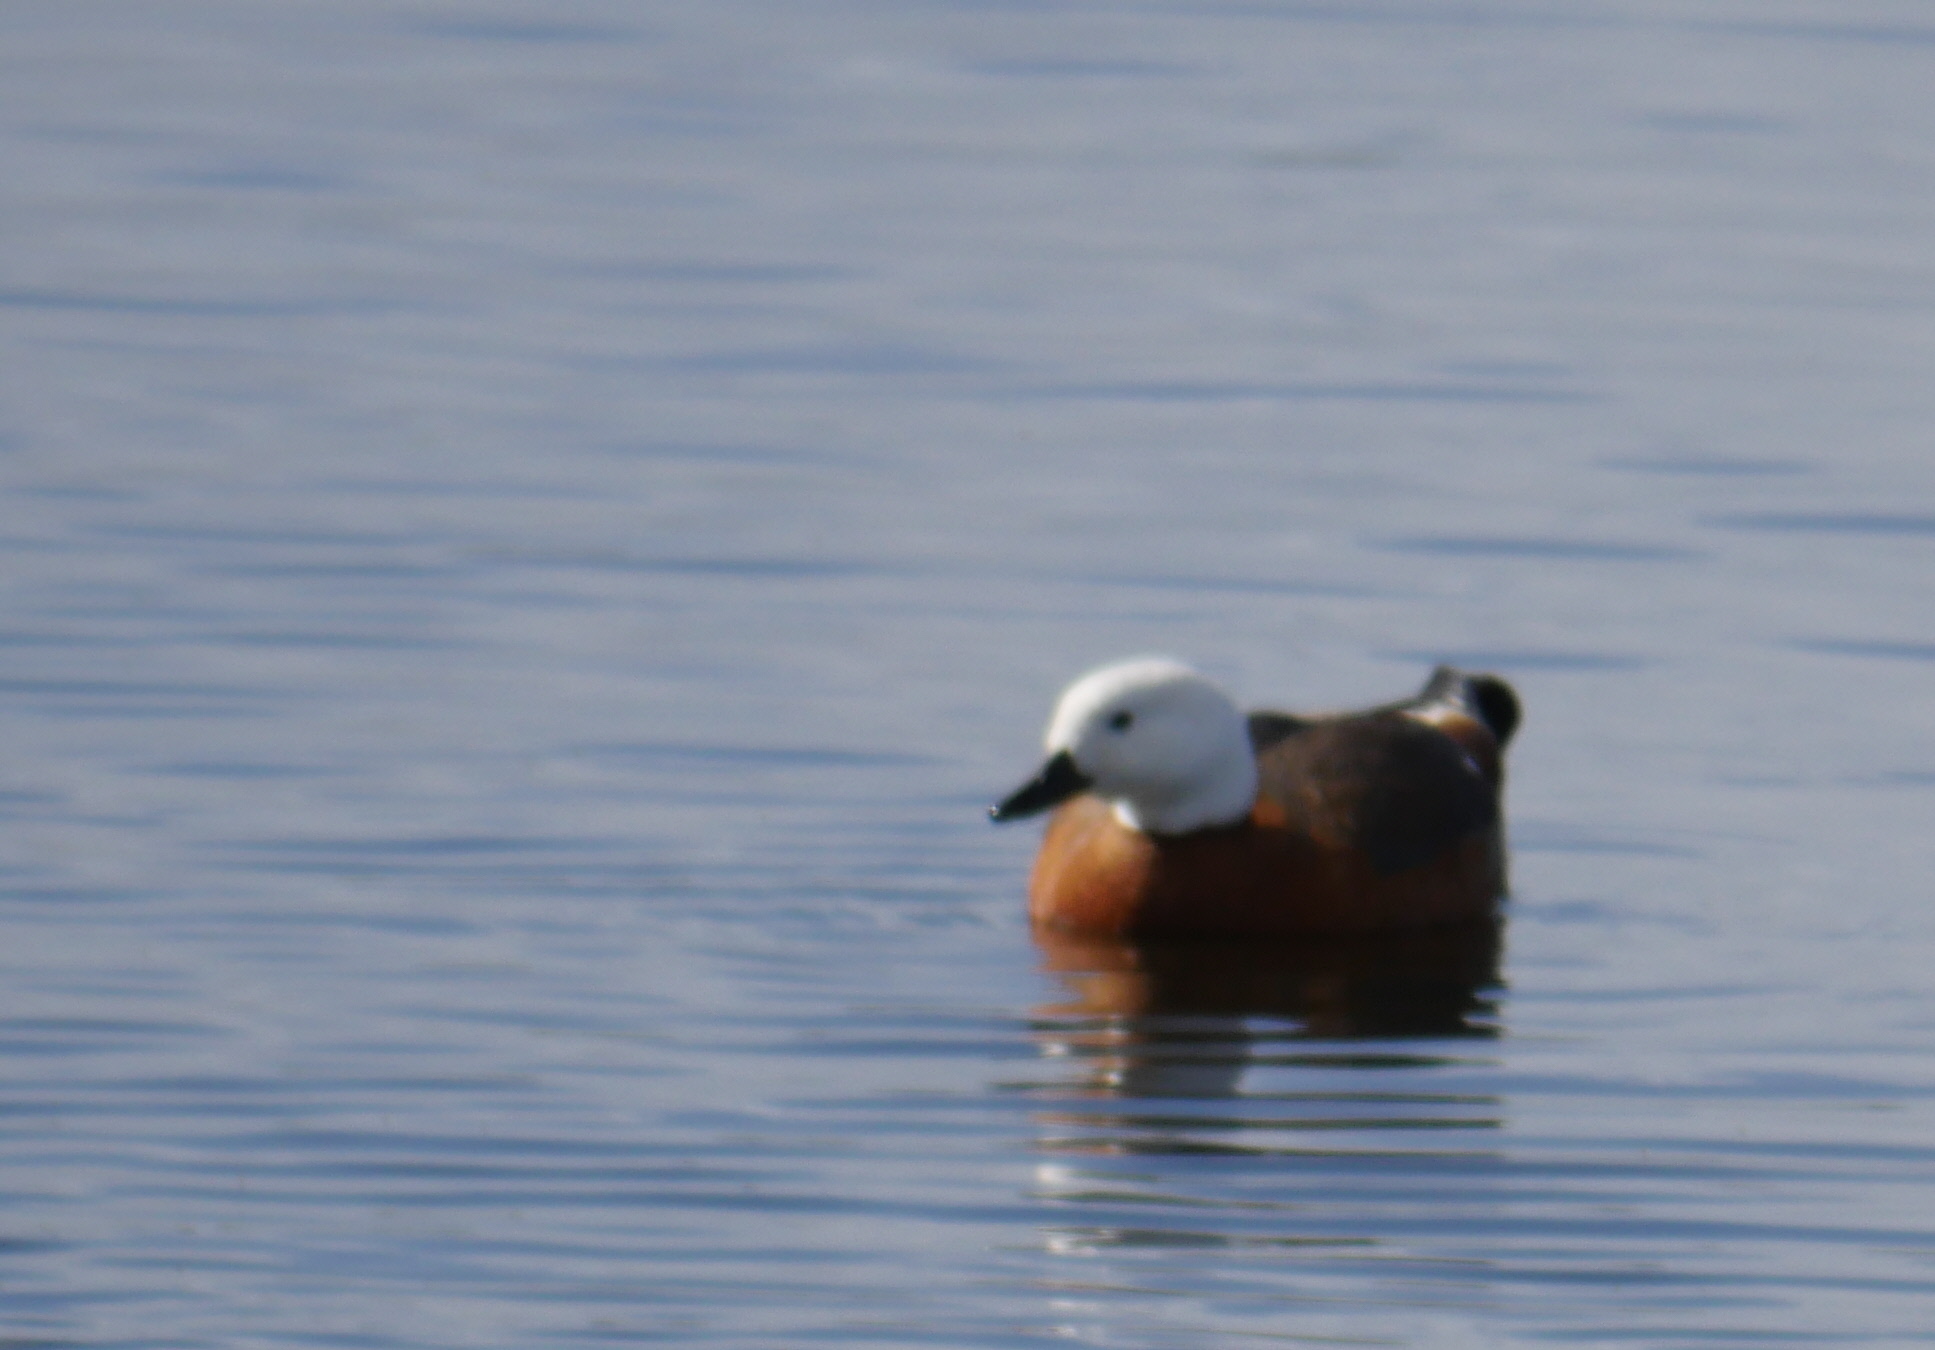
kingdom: Animalia
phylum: Chordata
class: Aves
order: Anseriformes
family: Anatidae
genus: Tadorna
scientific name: Tadorna variegata
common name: Paradise shelduck
